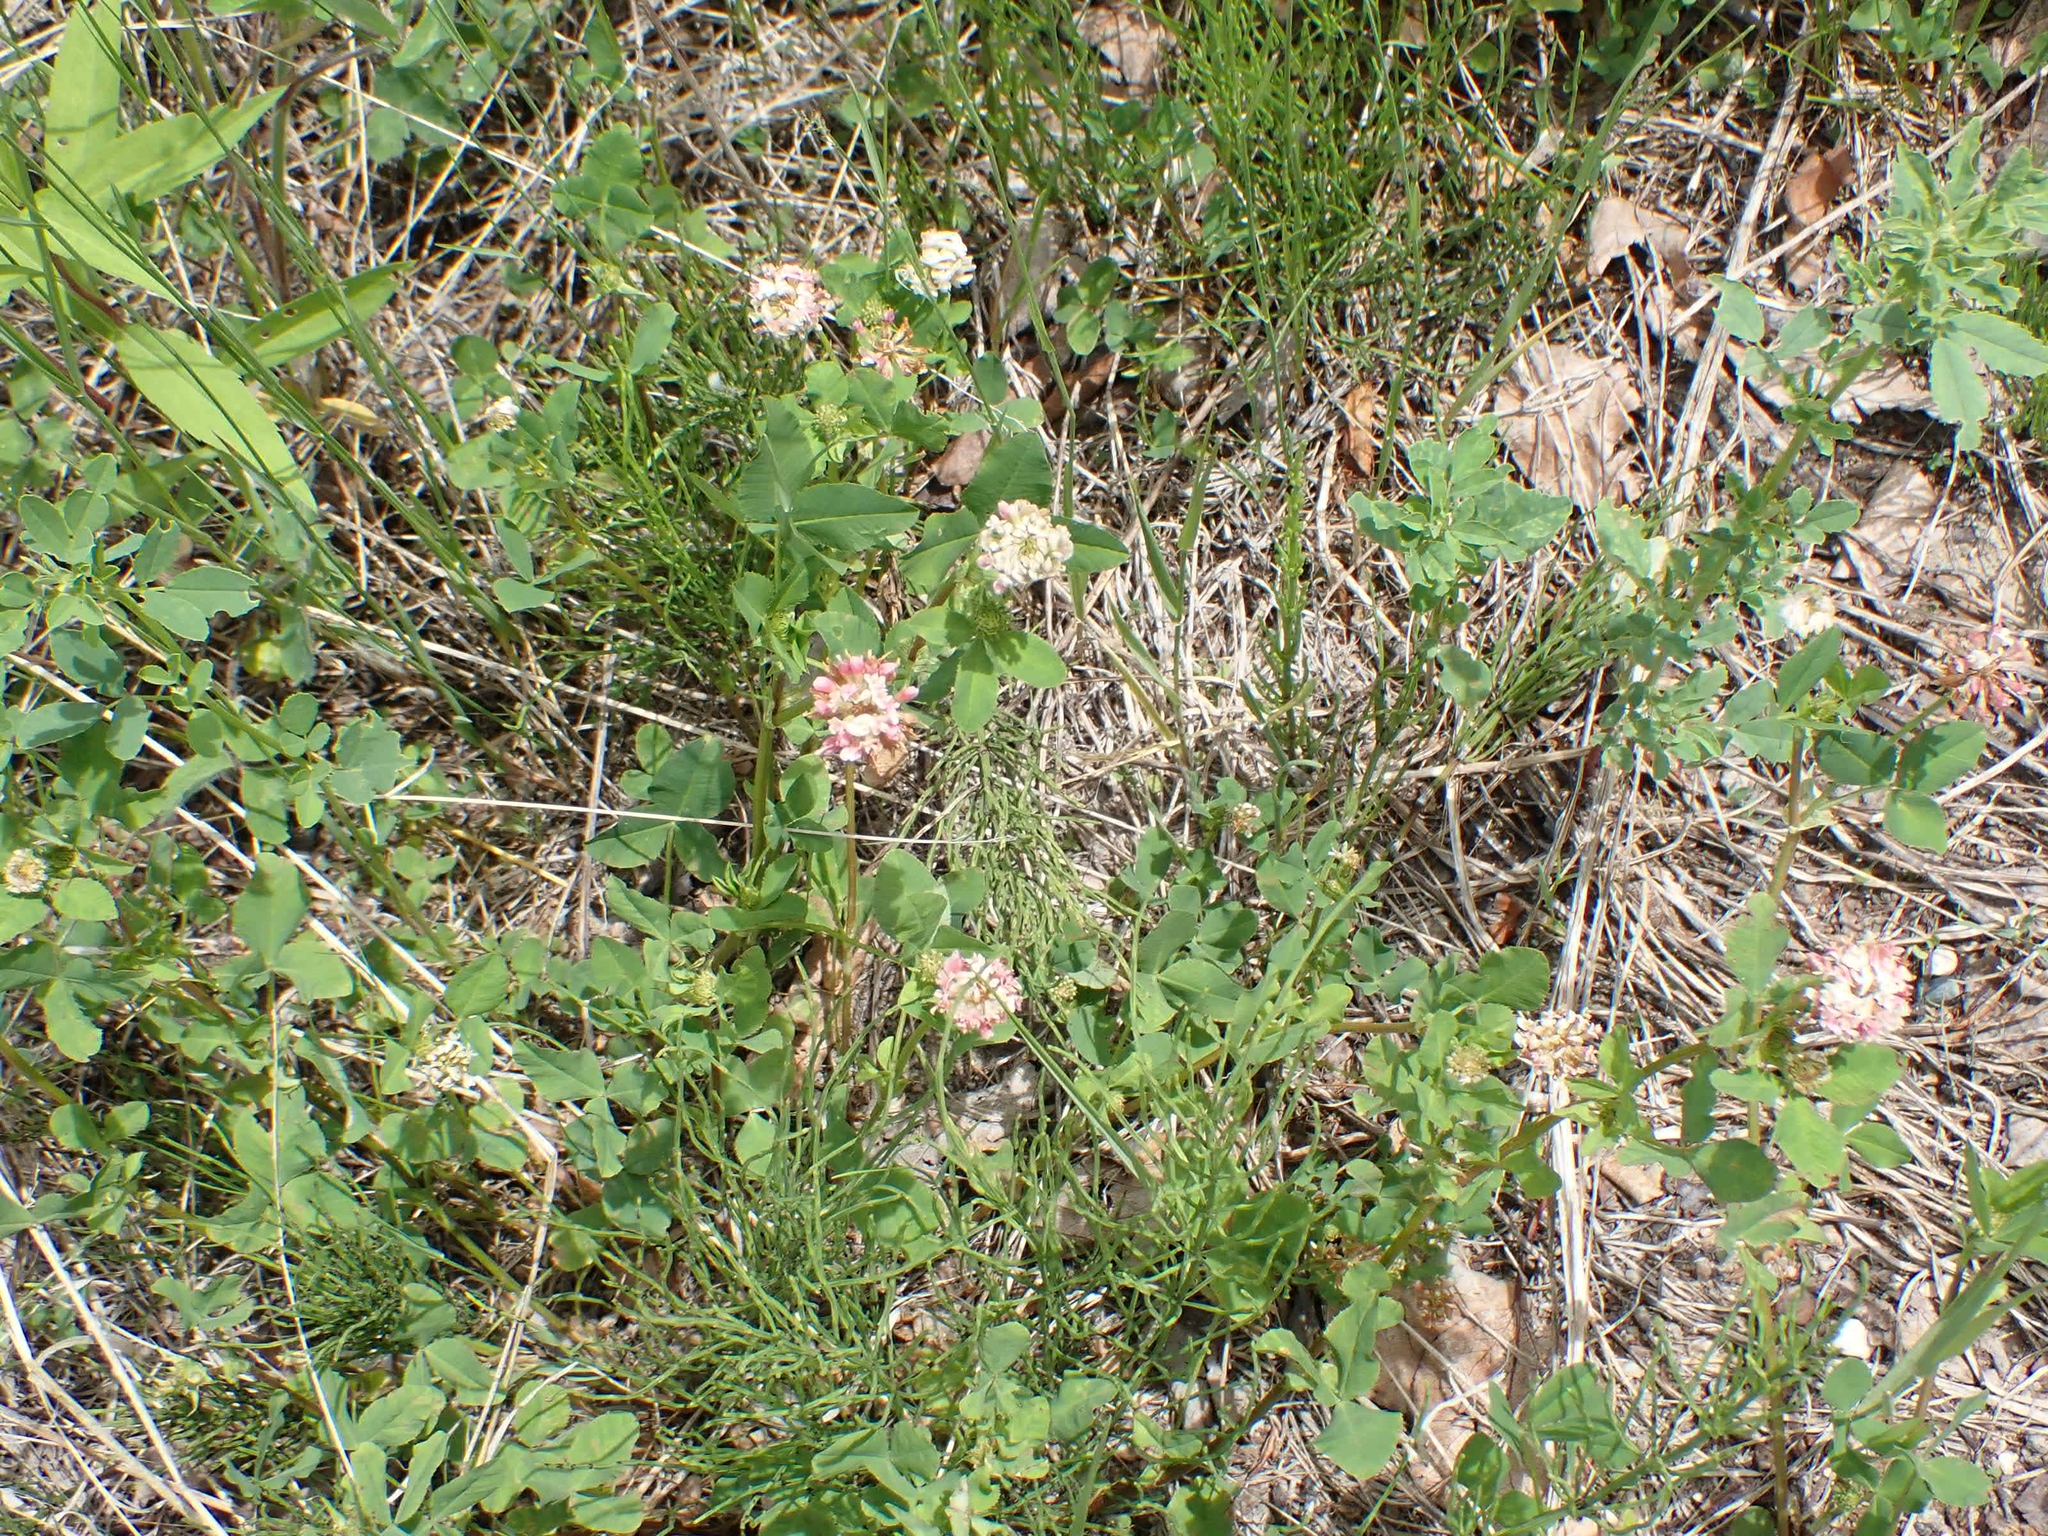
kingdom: Plantae
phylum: Tracheophyta
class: Magnoliopsida
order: Fabales
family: Fabaceae
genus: Trifolium
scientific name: Trifolium hybridum
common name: Alsike clover
